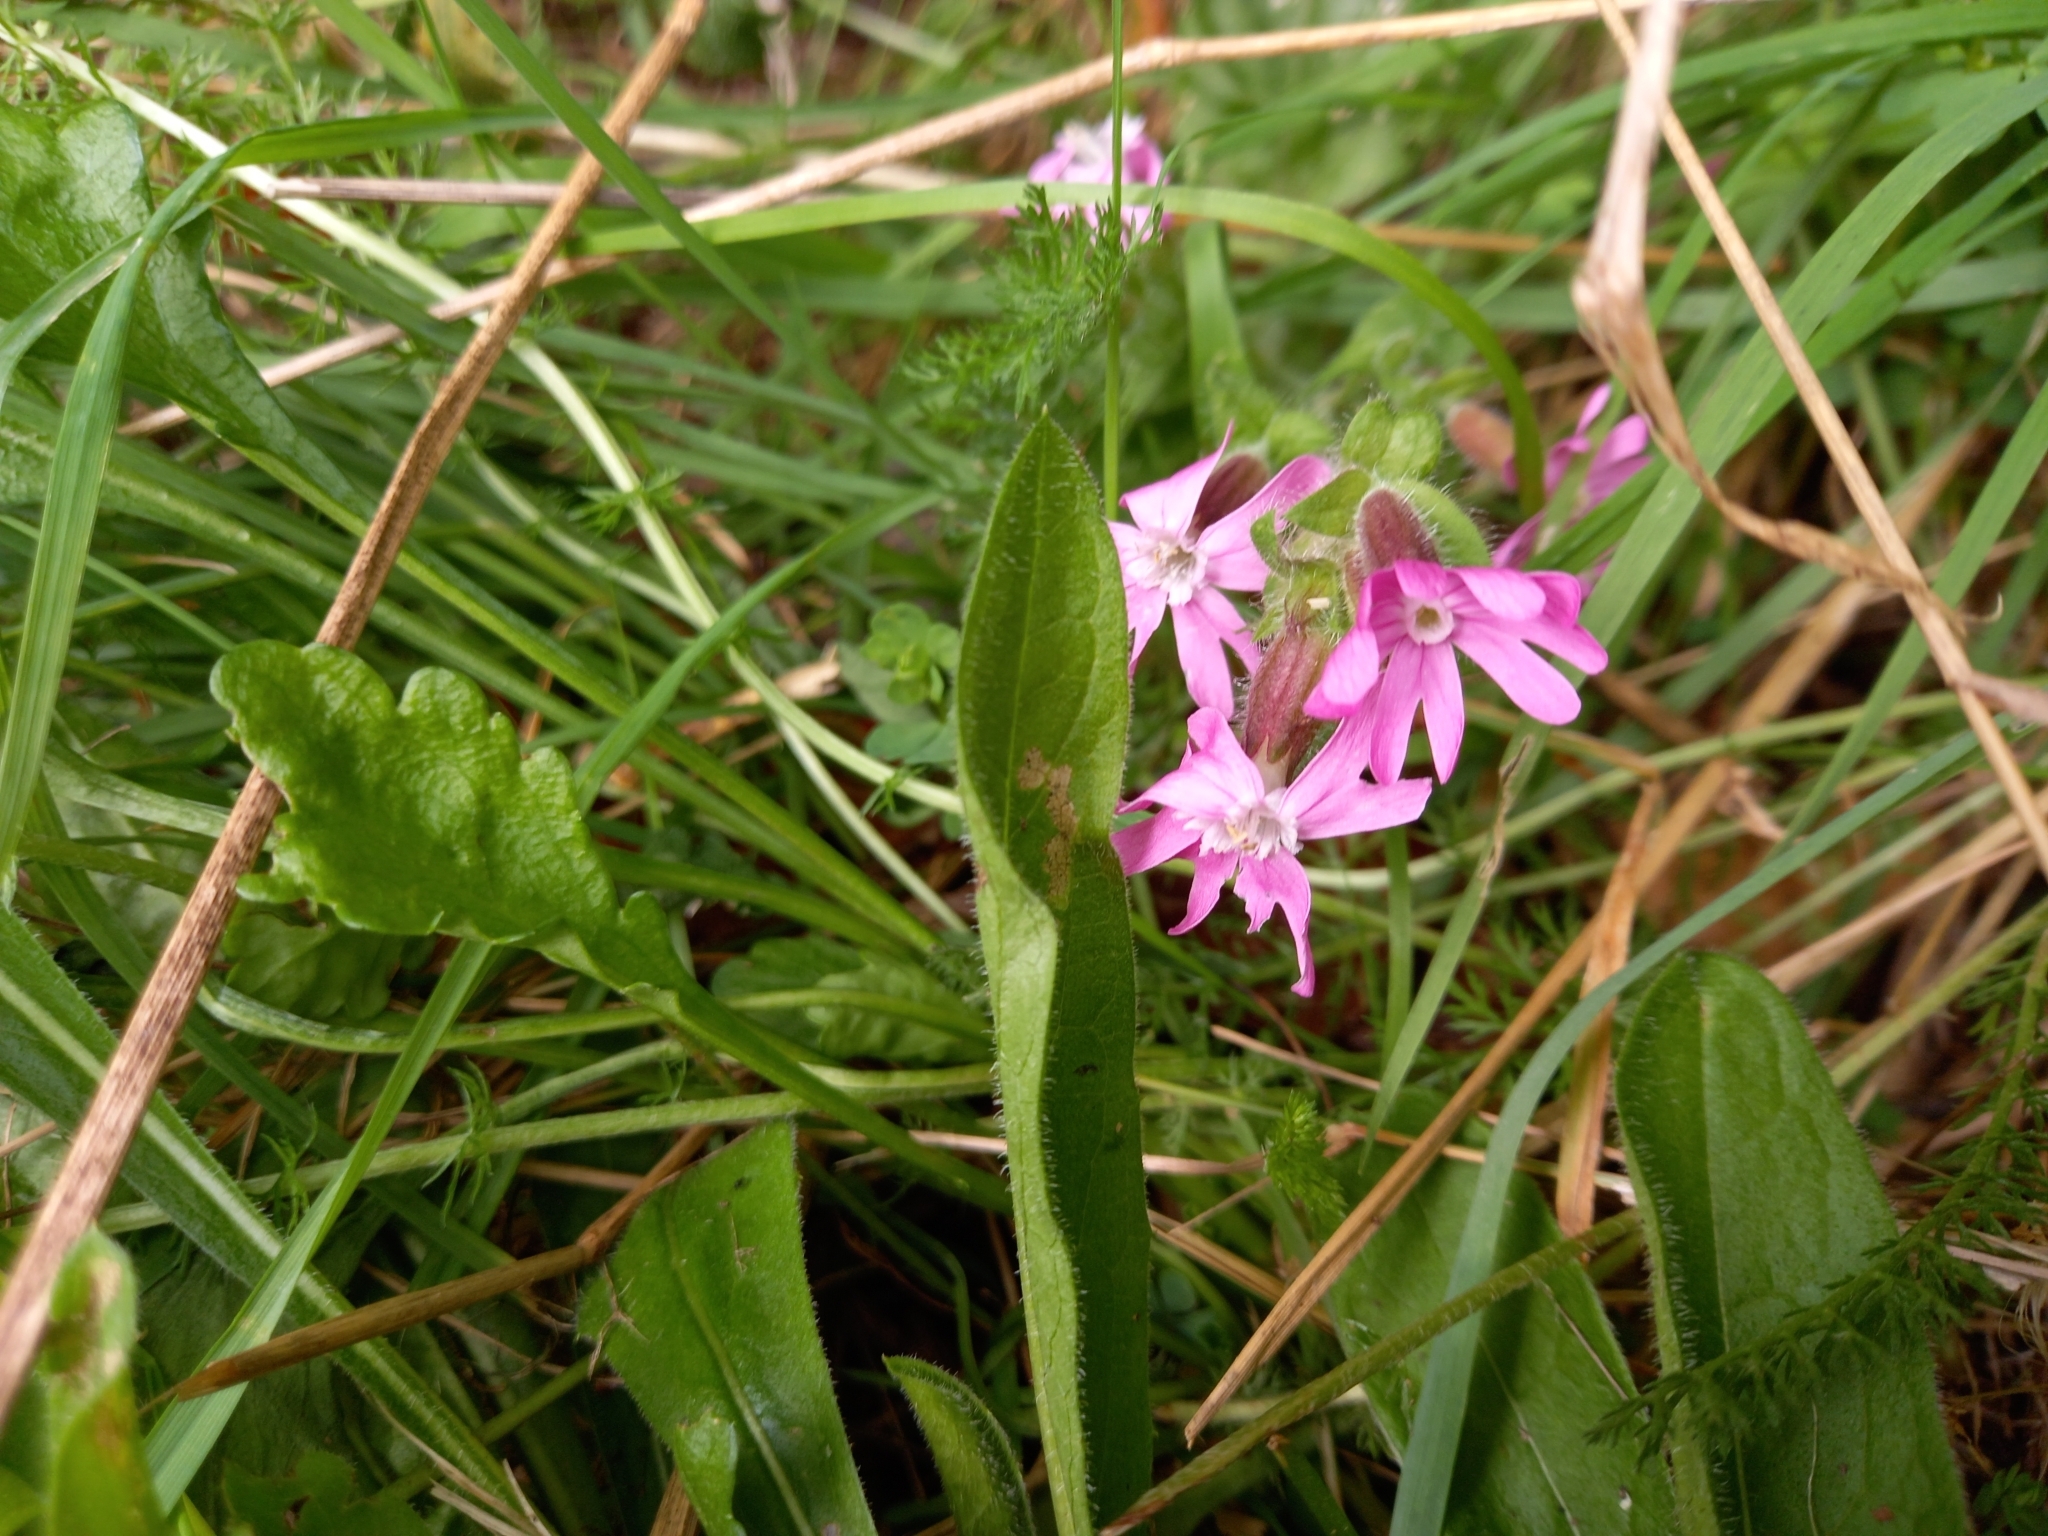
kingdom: Plantae
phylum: Tracheophyta
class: Magnoliopsida
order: Caryophyllales
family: Caryophyllaceae
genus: Silene
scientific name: Silene dioica
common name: Red campion
